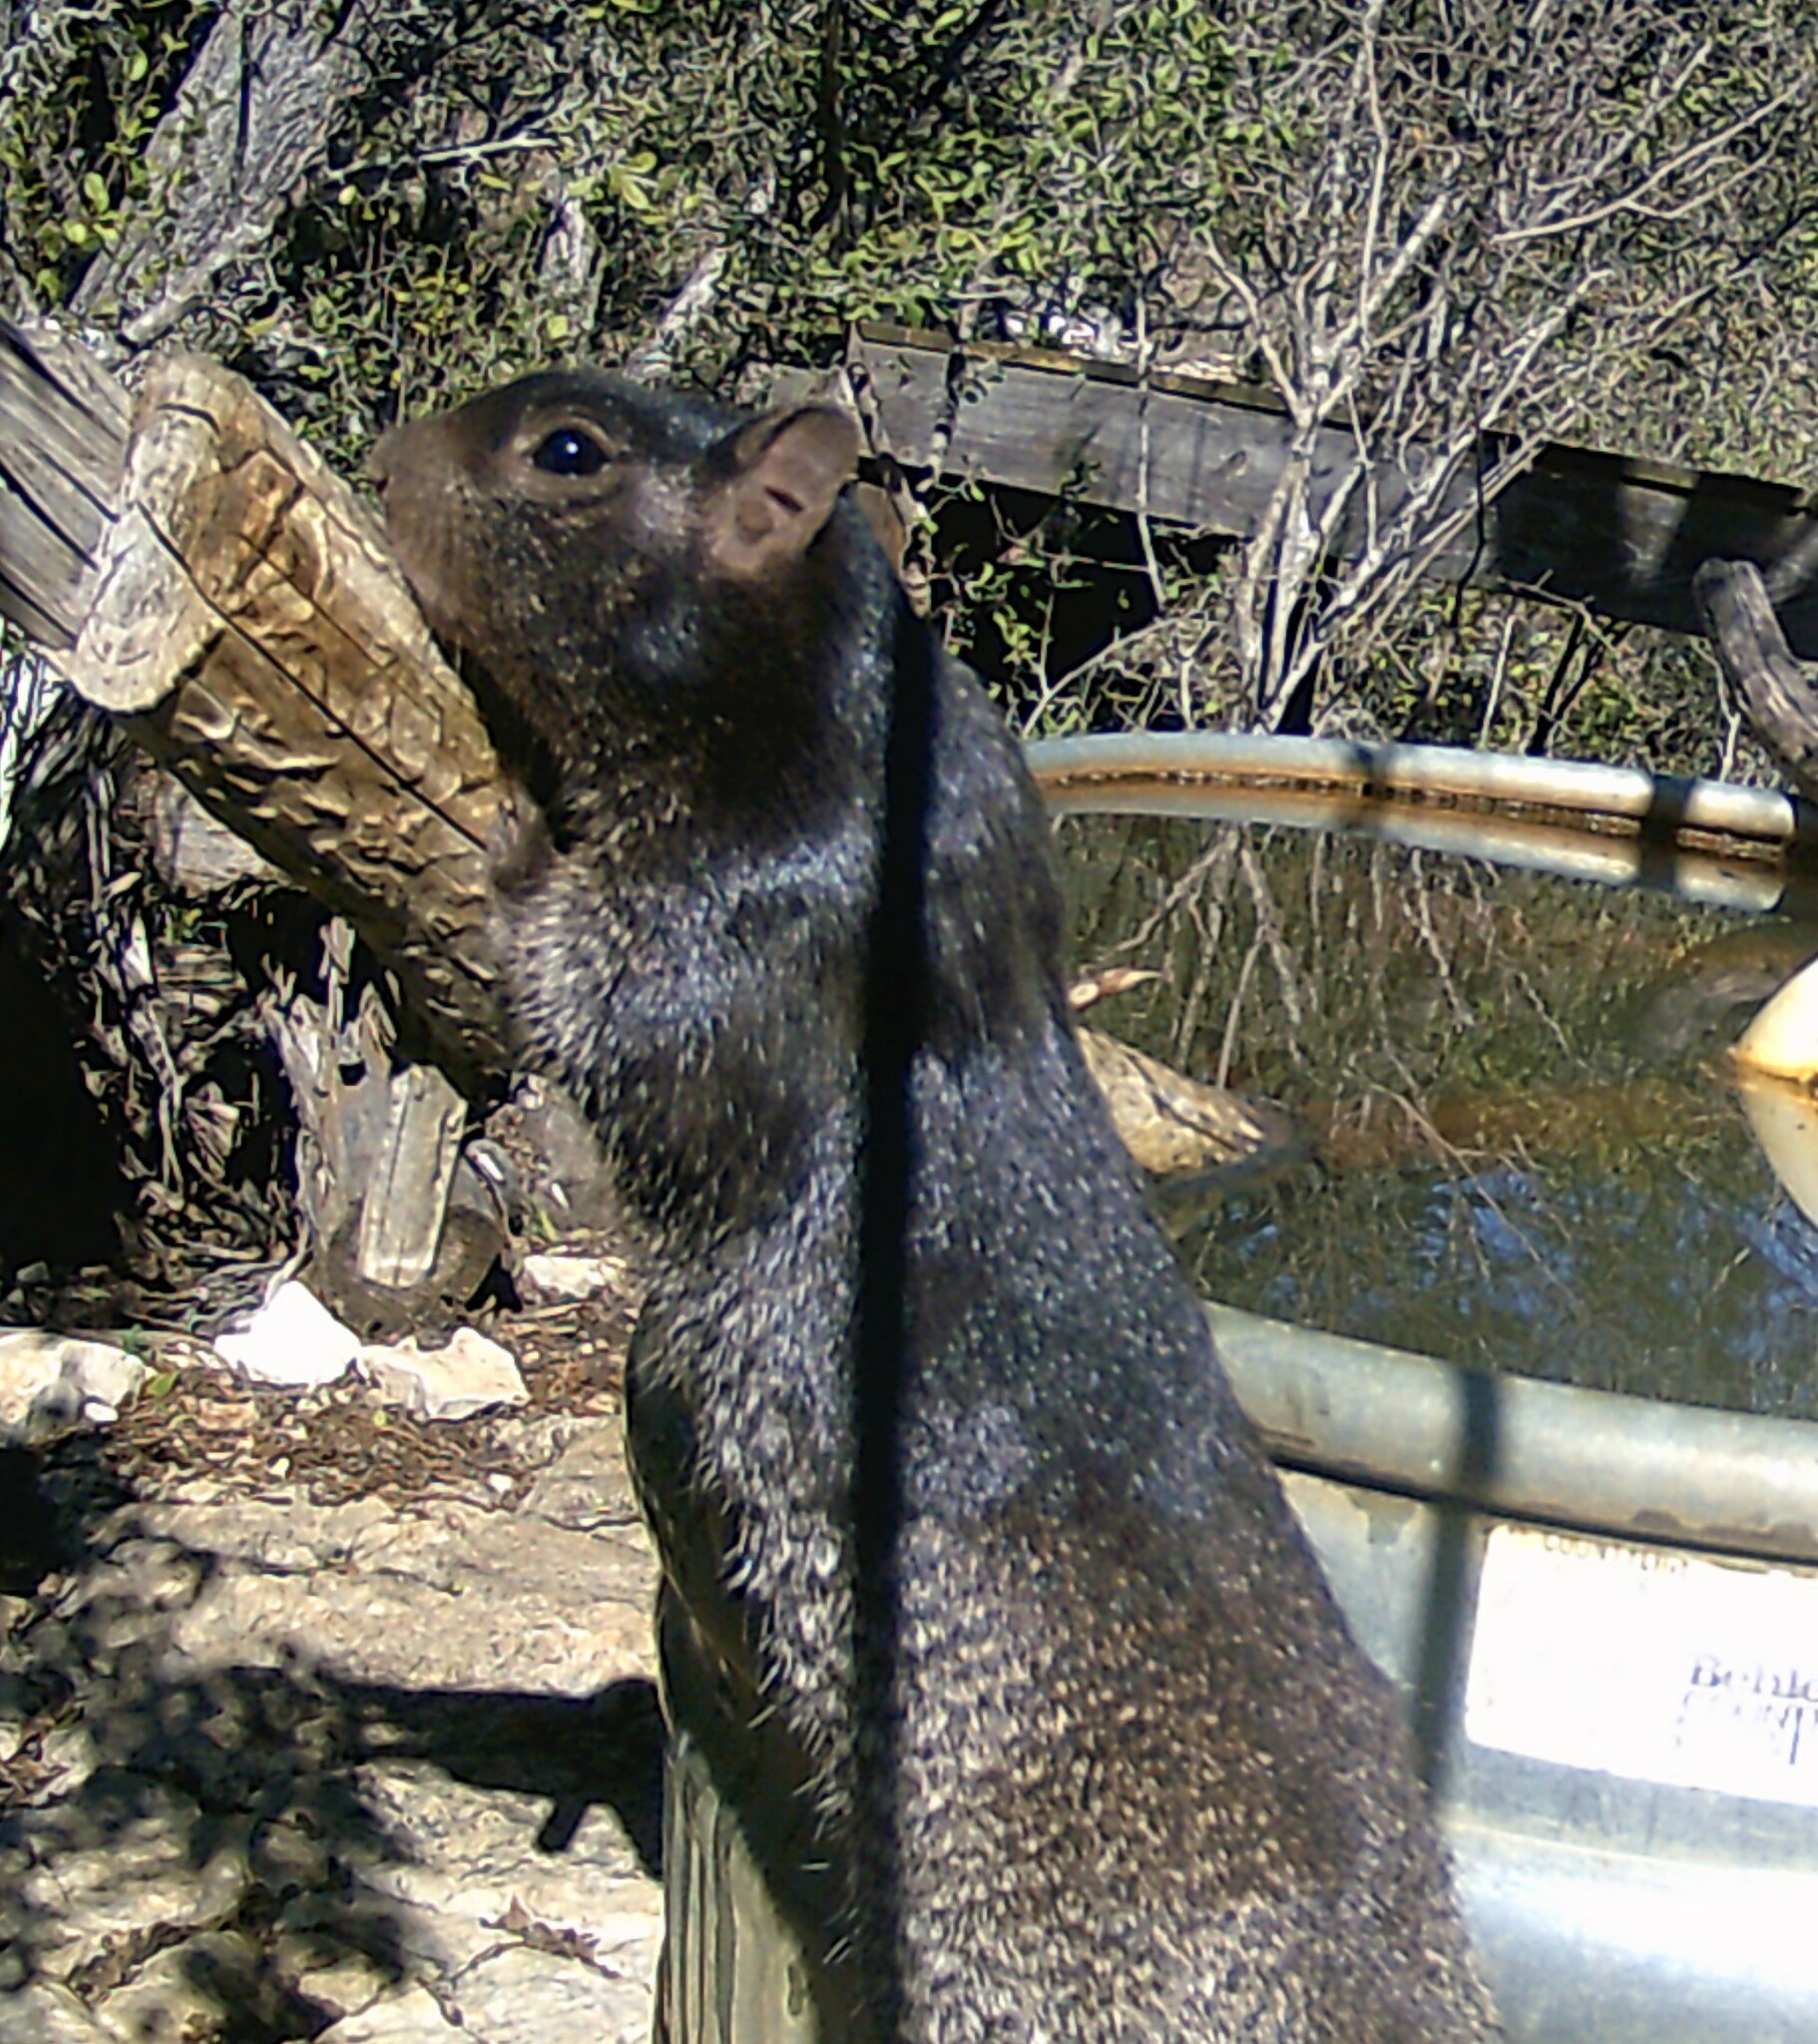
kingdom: Animalia
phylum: Chordata
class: Mammalia
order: Rodentia
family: Sciuridae
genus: Otospermophilus
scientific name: Otospermophilus variegatus
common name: Rock squirrel
